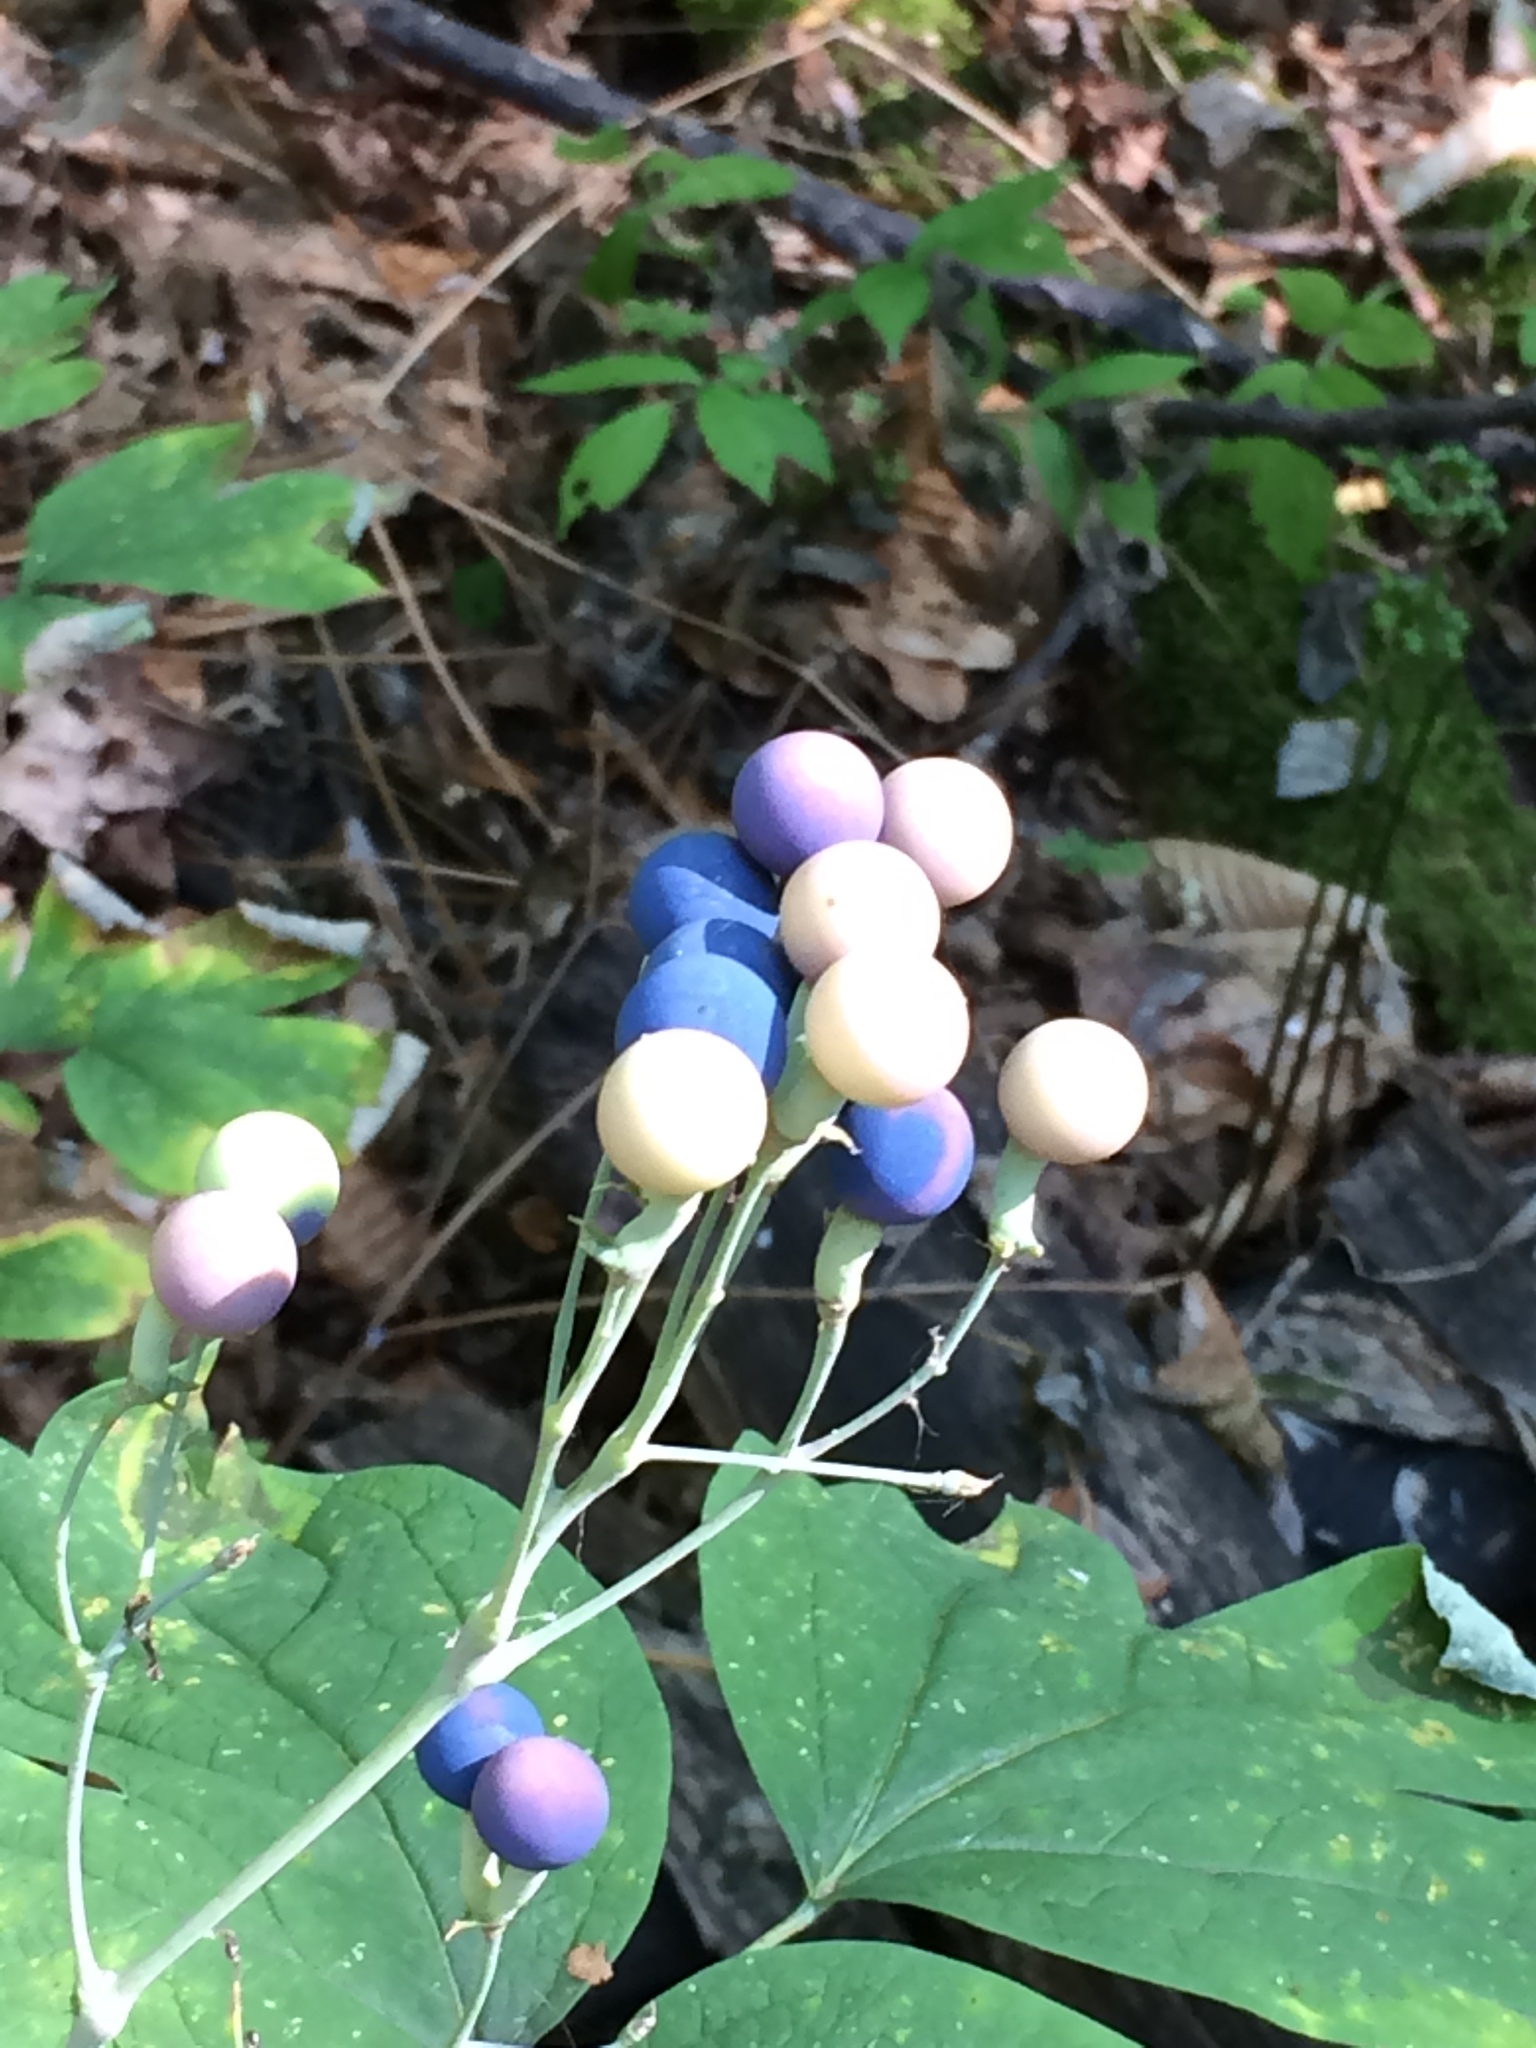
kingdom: Plantae
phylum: Tracheophyta
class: Magnoliopsida
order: Ranunculales
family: Berberidaceae
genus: Caulophyllum
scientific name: Caulophyllum thalictroides
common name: Blue cohosh
